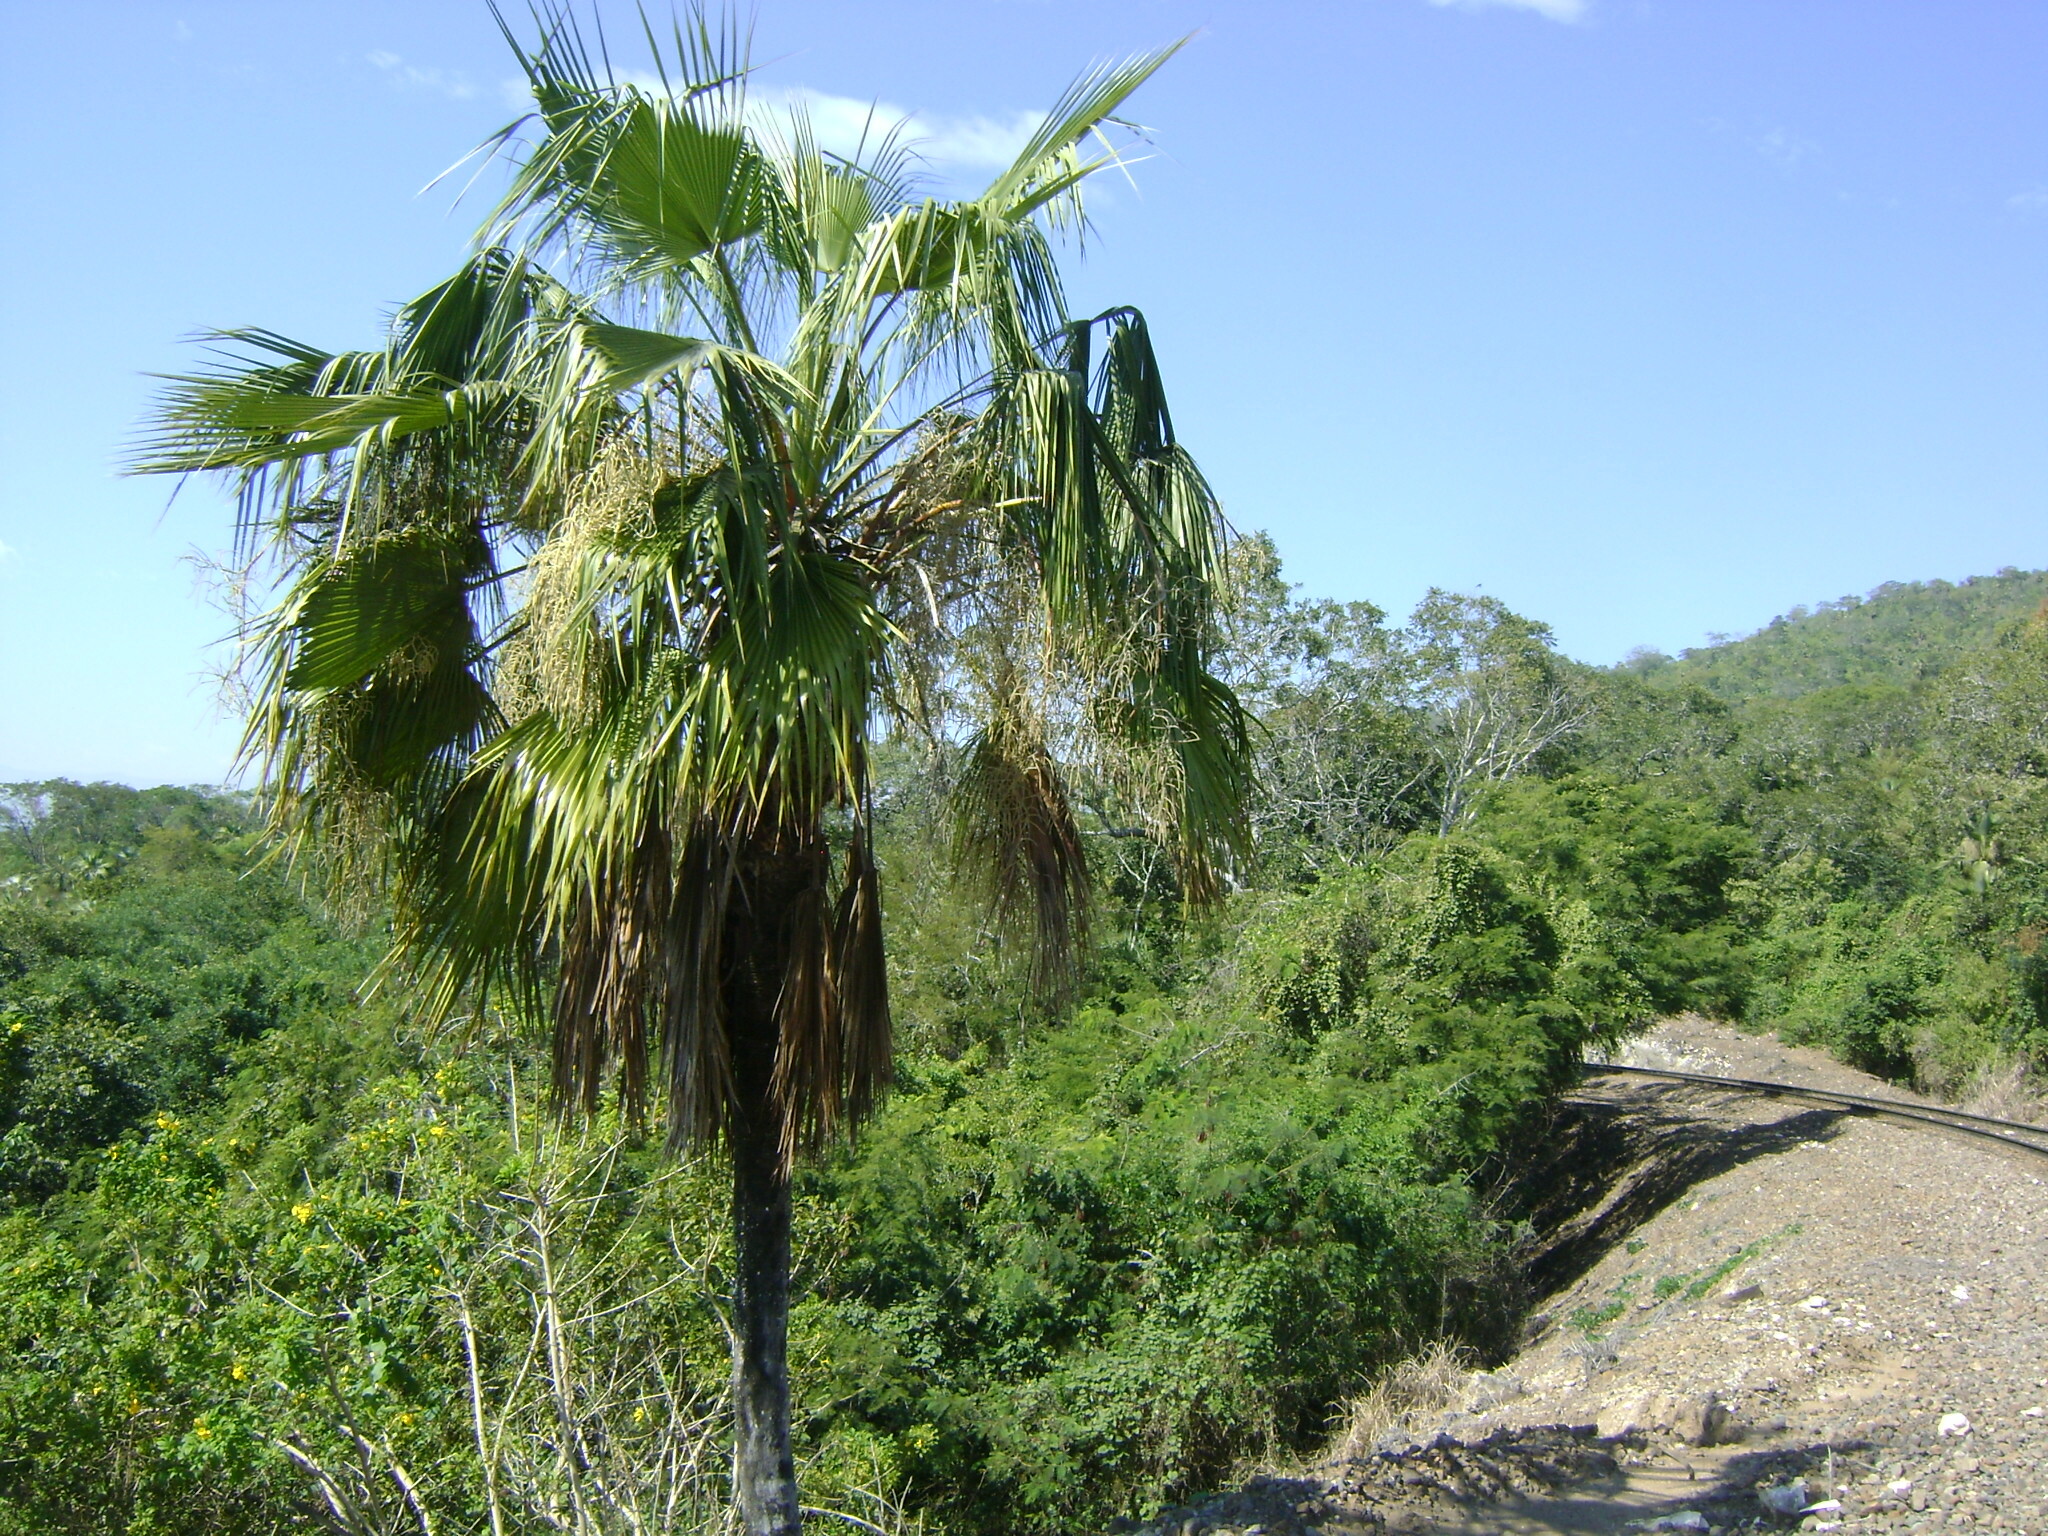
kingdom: Plantae
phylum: Tracheophyta
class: Liliopsida
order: Arecales
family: Arecaceae
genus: Brahea
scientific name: Brahea dulcis
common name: Apak palm
